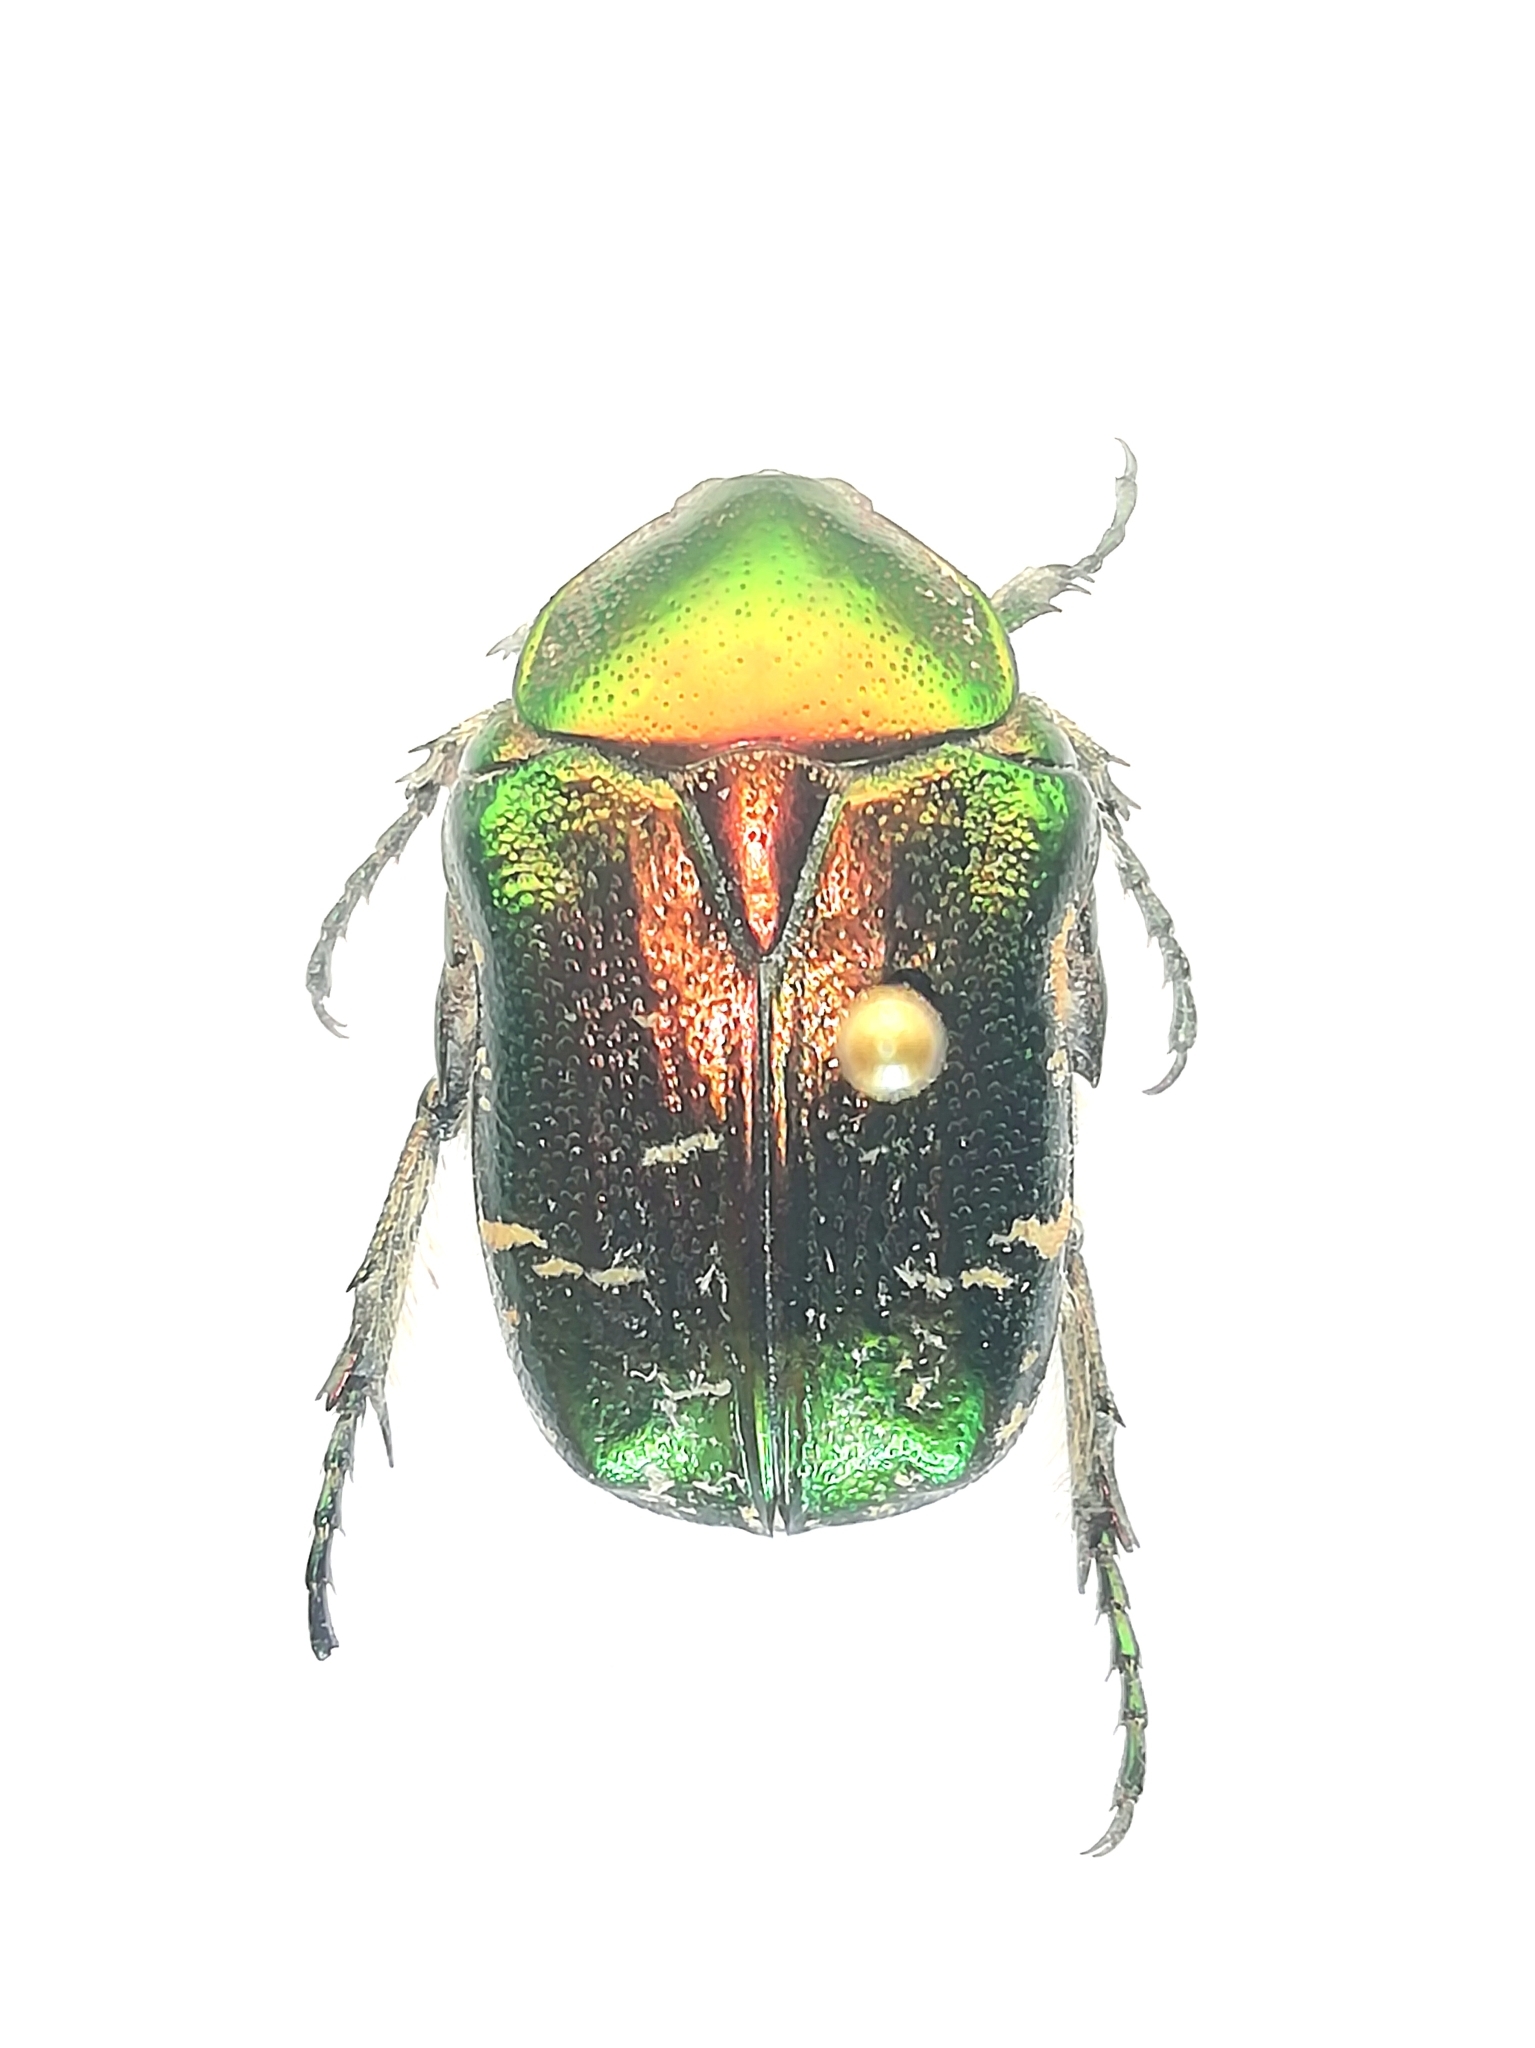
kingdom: Animalia
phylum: Arthropoda
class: Insecta
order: Coleoptera
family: Scarabaeidae
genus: Cetonia
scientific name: Cetonia aurata
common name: Rose chafer
